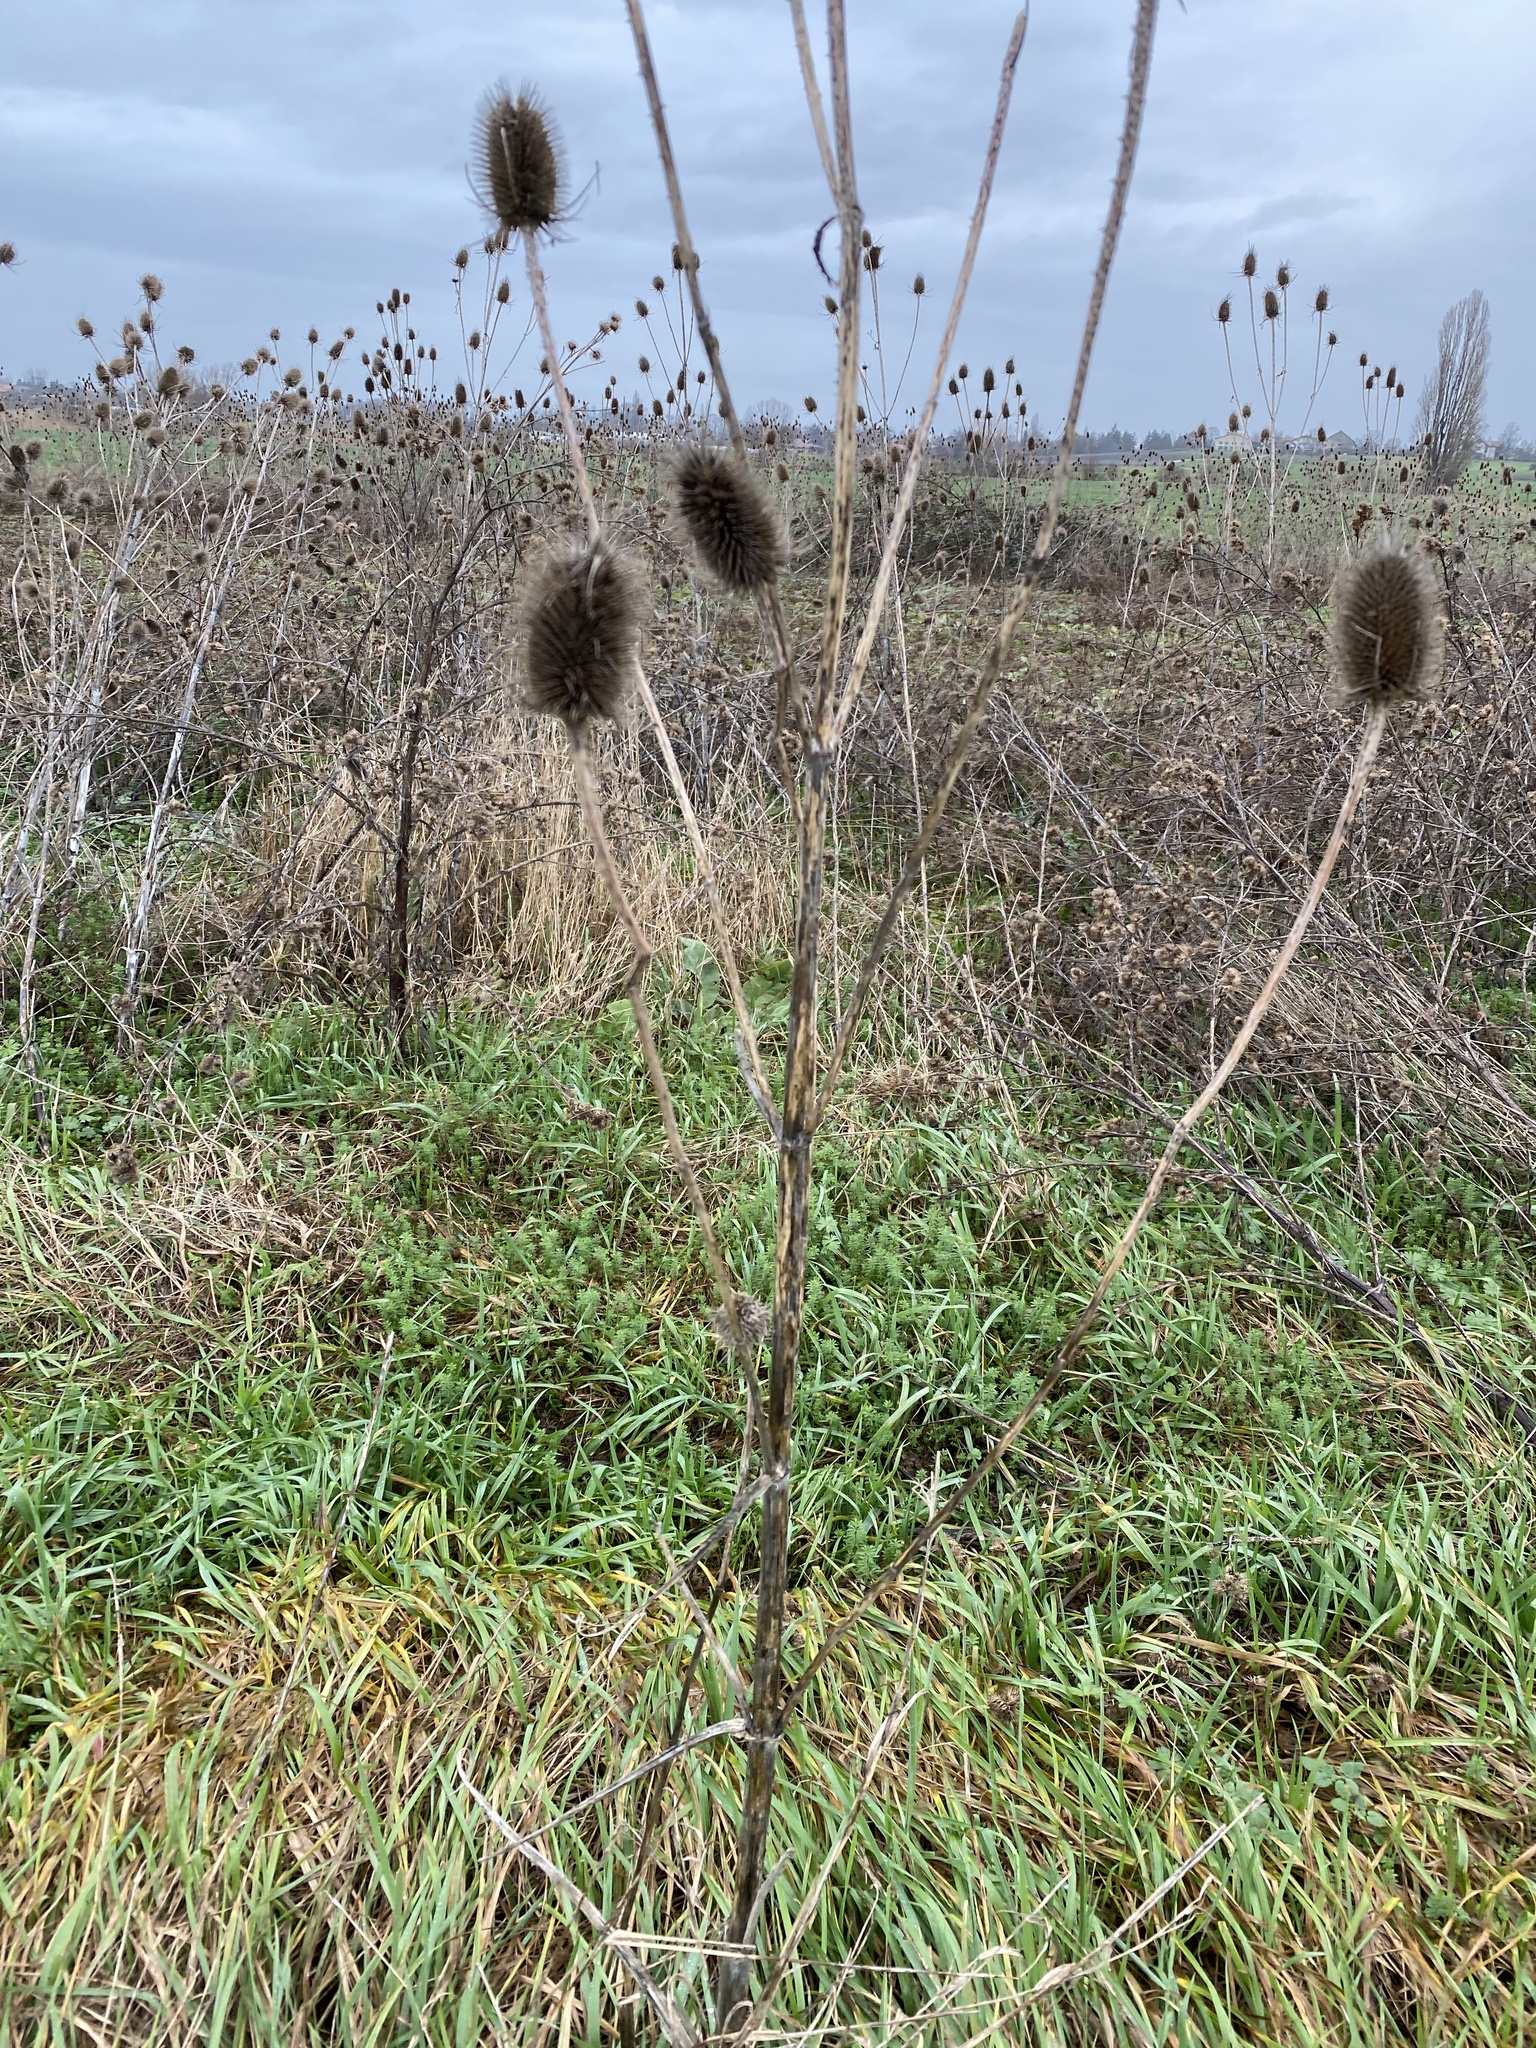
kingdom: Plantae
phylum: Tracheophyta
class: Magnoliopsida
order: Dipsacales
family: Caprifoliaceae
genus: Dipsacus
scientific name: Dipsacus fullonum
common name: Teasel
